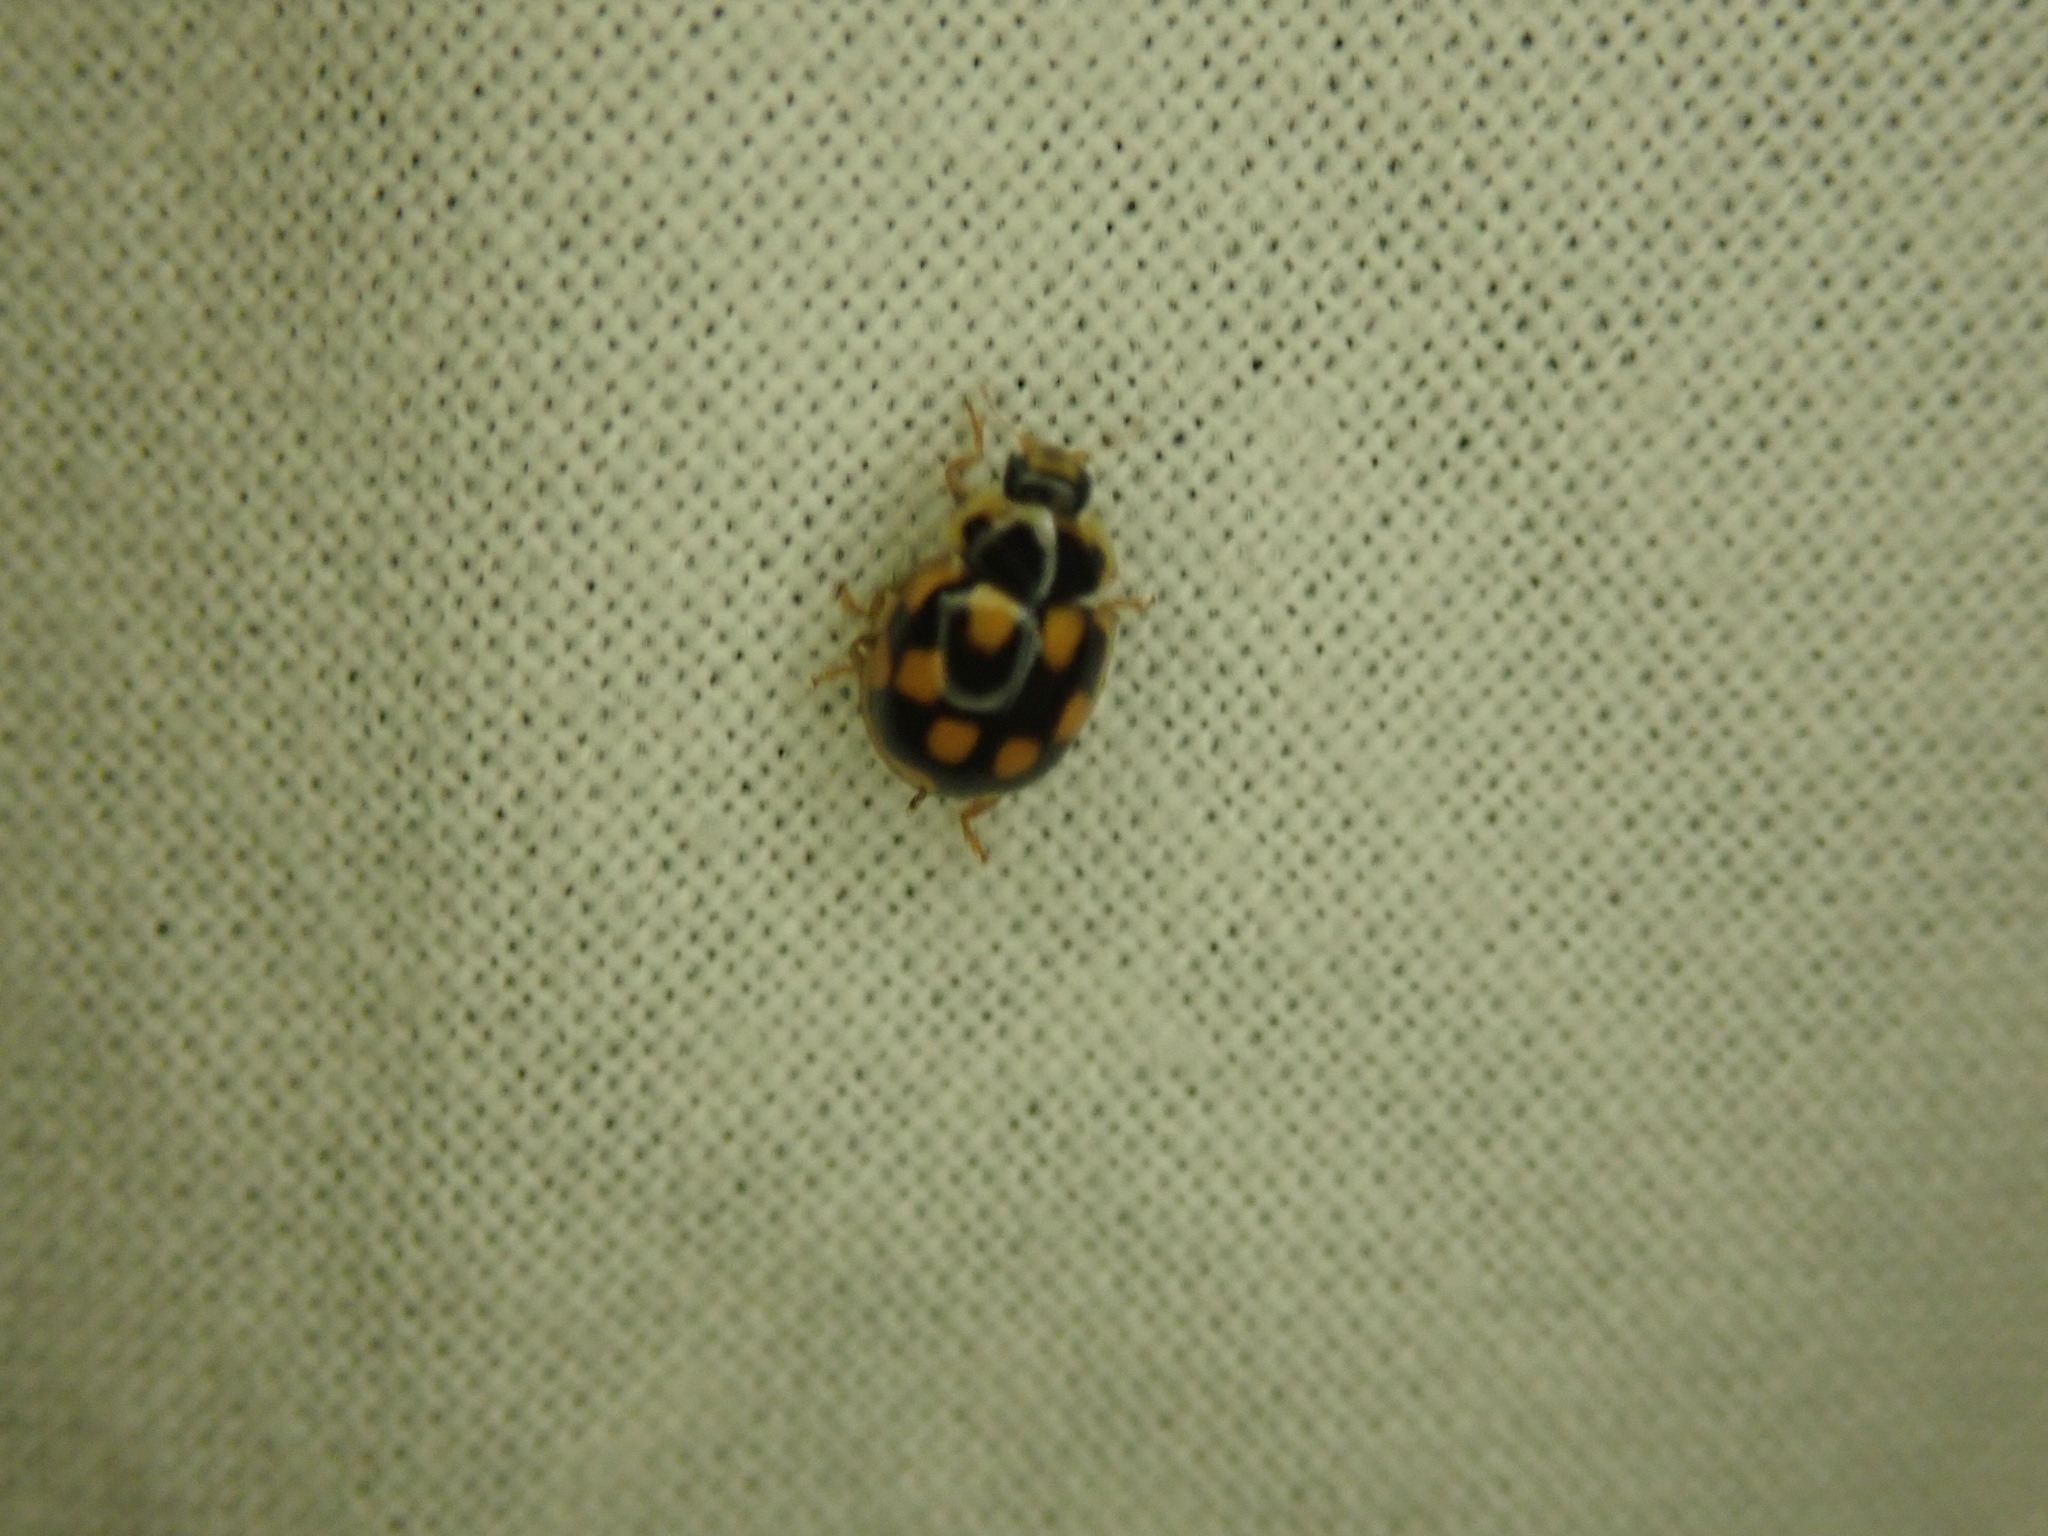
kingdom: Animalia
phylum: Arthropoda
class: Insecta
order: Coleoptera
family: Coccinellidae
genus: Propylaea
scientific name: Propylaea quatuordecimpunctata
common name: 14-spotted ladybird beetle
